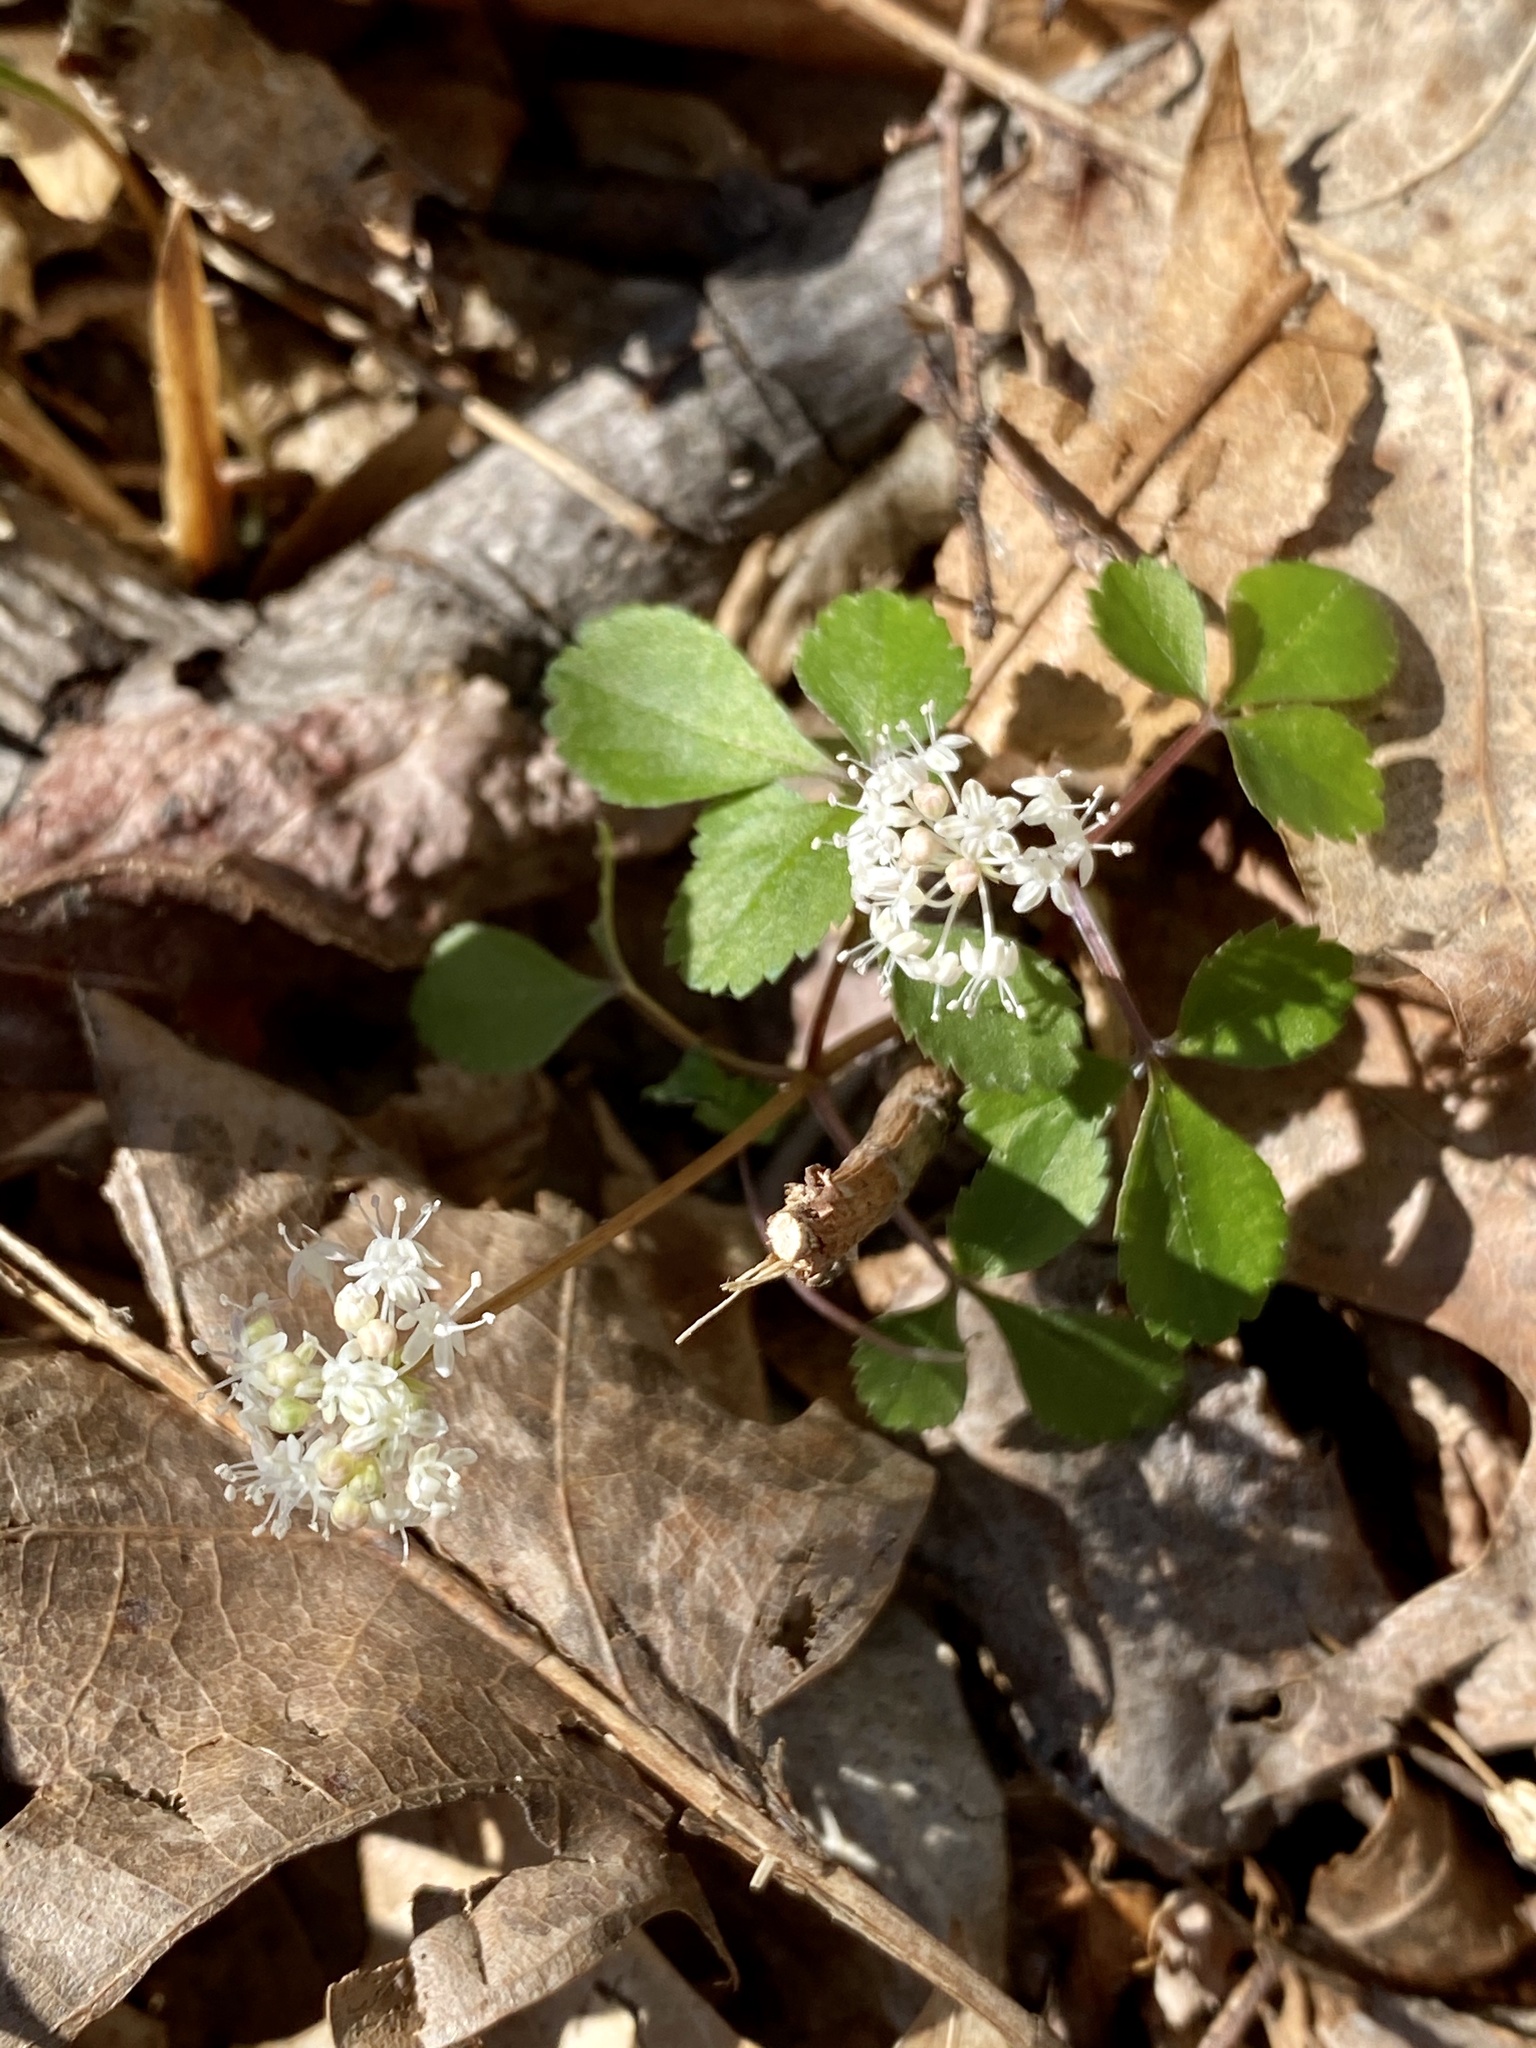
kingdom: Plantae
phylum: Tracheophyta
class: Magnoliopsida
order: Apiales
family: Araliaceae
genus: Panax
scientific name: Panax trifolius
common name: Dwarf ginseng
